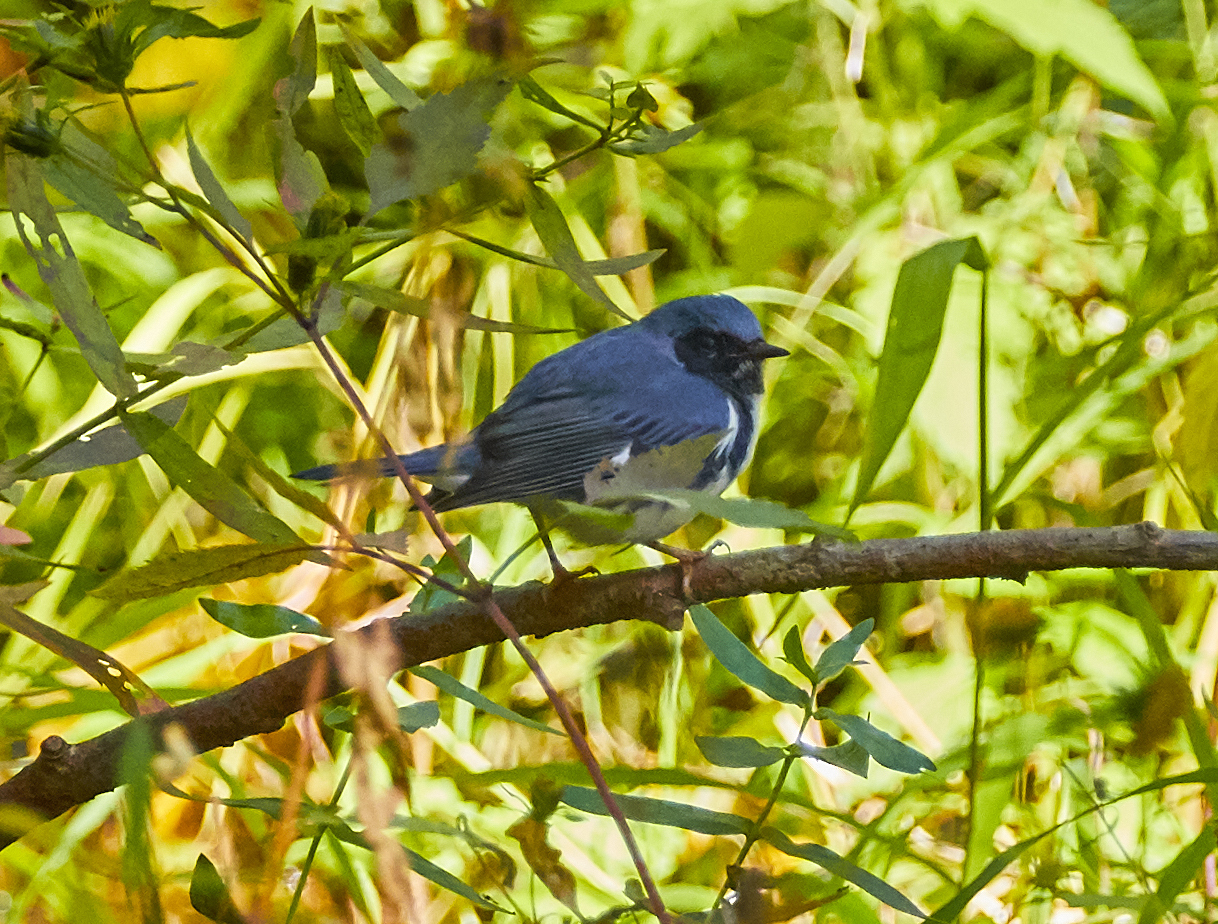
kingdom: Animalia
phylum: Chordata
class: Aves
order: Passeriformes
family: Parulidae
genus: Setophaga
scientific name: Setophaga caerulescens
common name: Black-throated blue warbler
